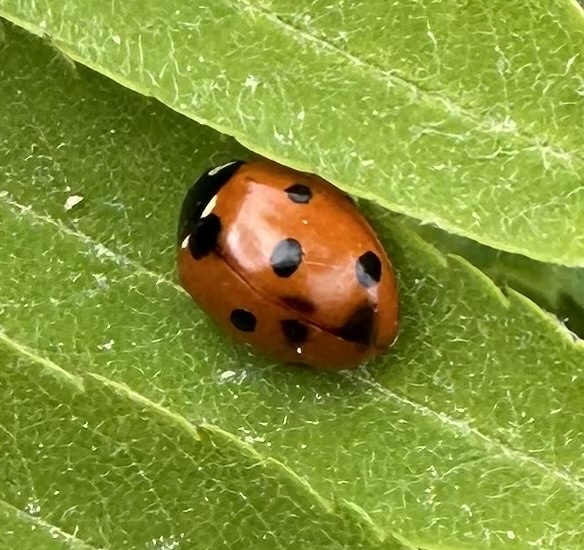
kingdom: Animalia
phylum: Arthropoda
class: Insecta
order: Coleoptera
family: Coccinellidae
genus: Coccinella
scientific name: Coccinella septempunctata
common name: Sevenspotted lady beetle
